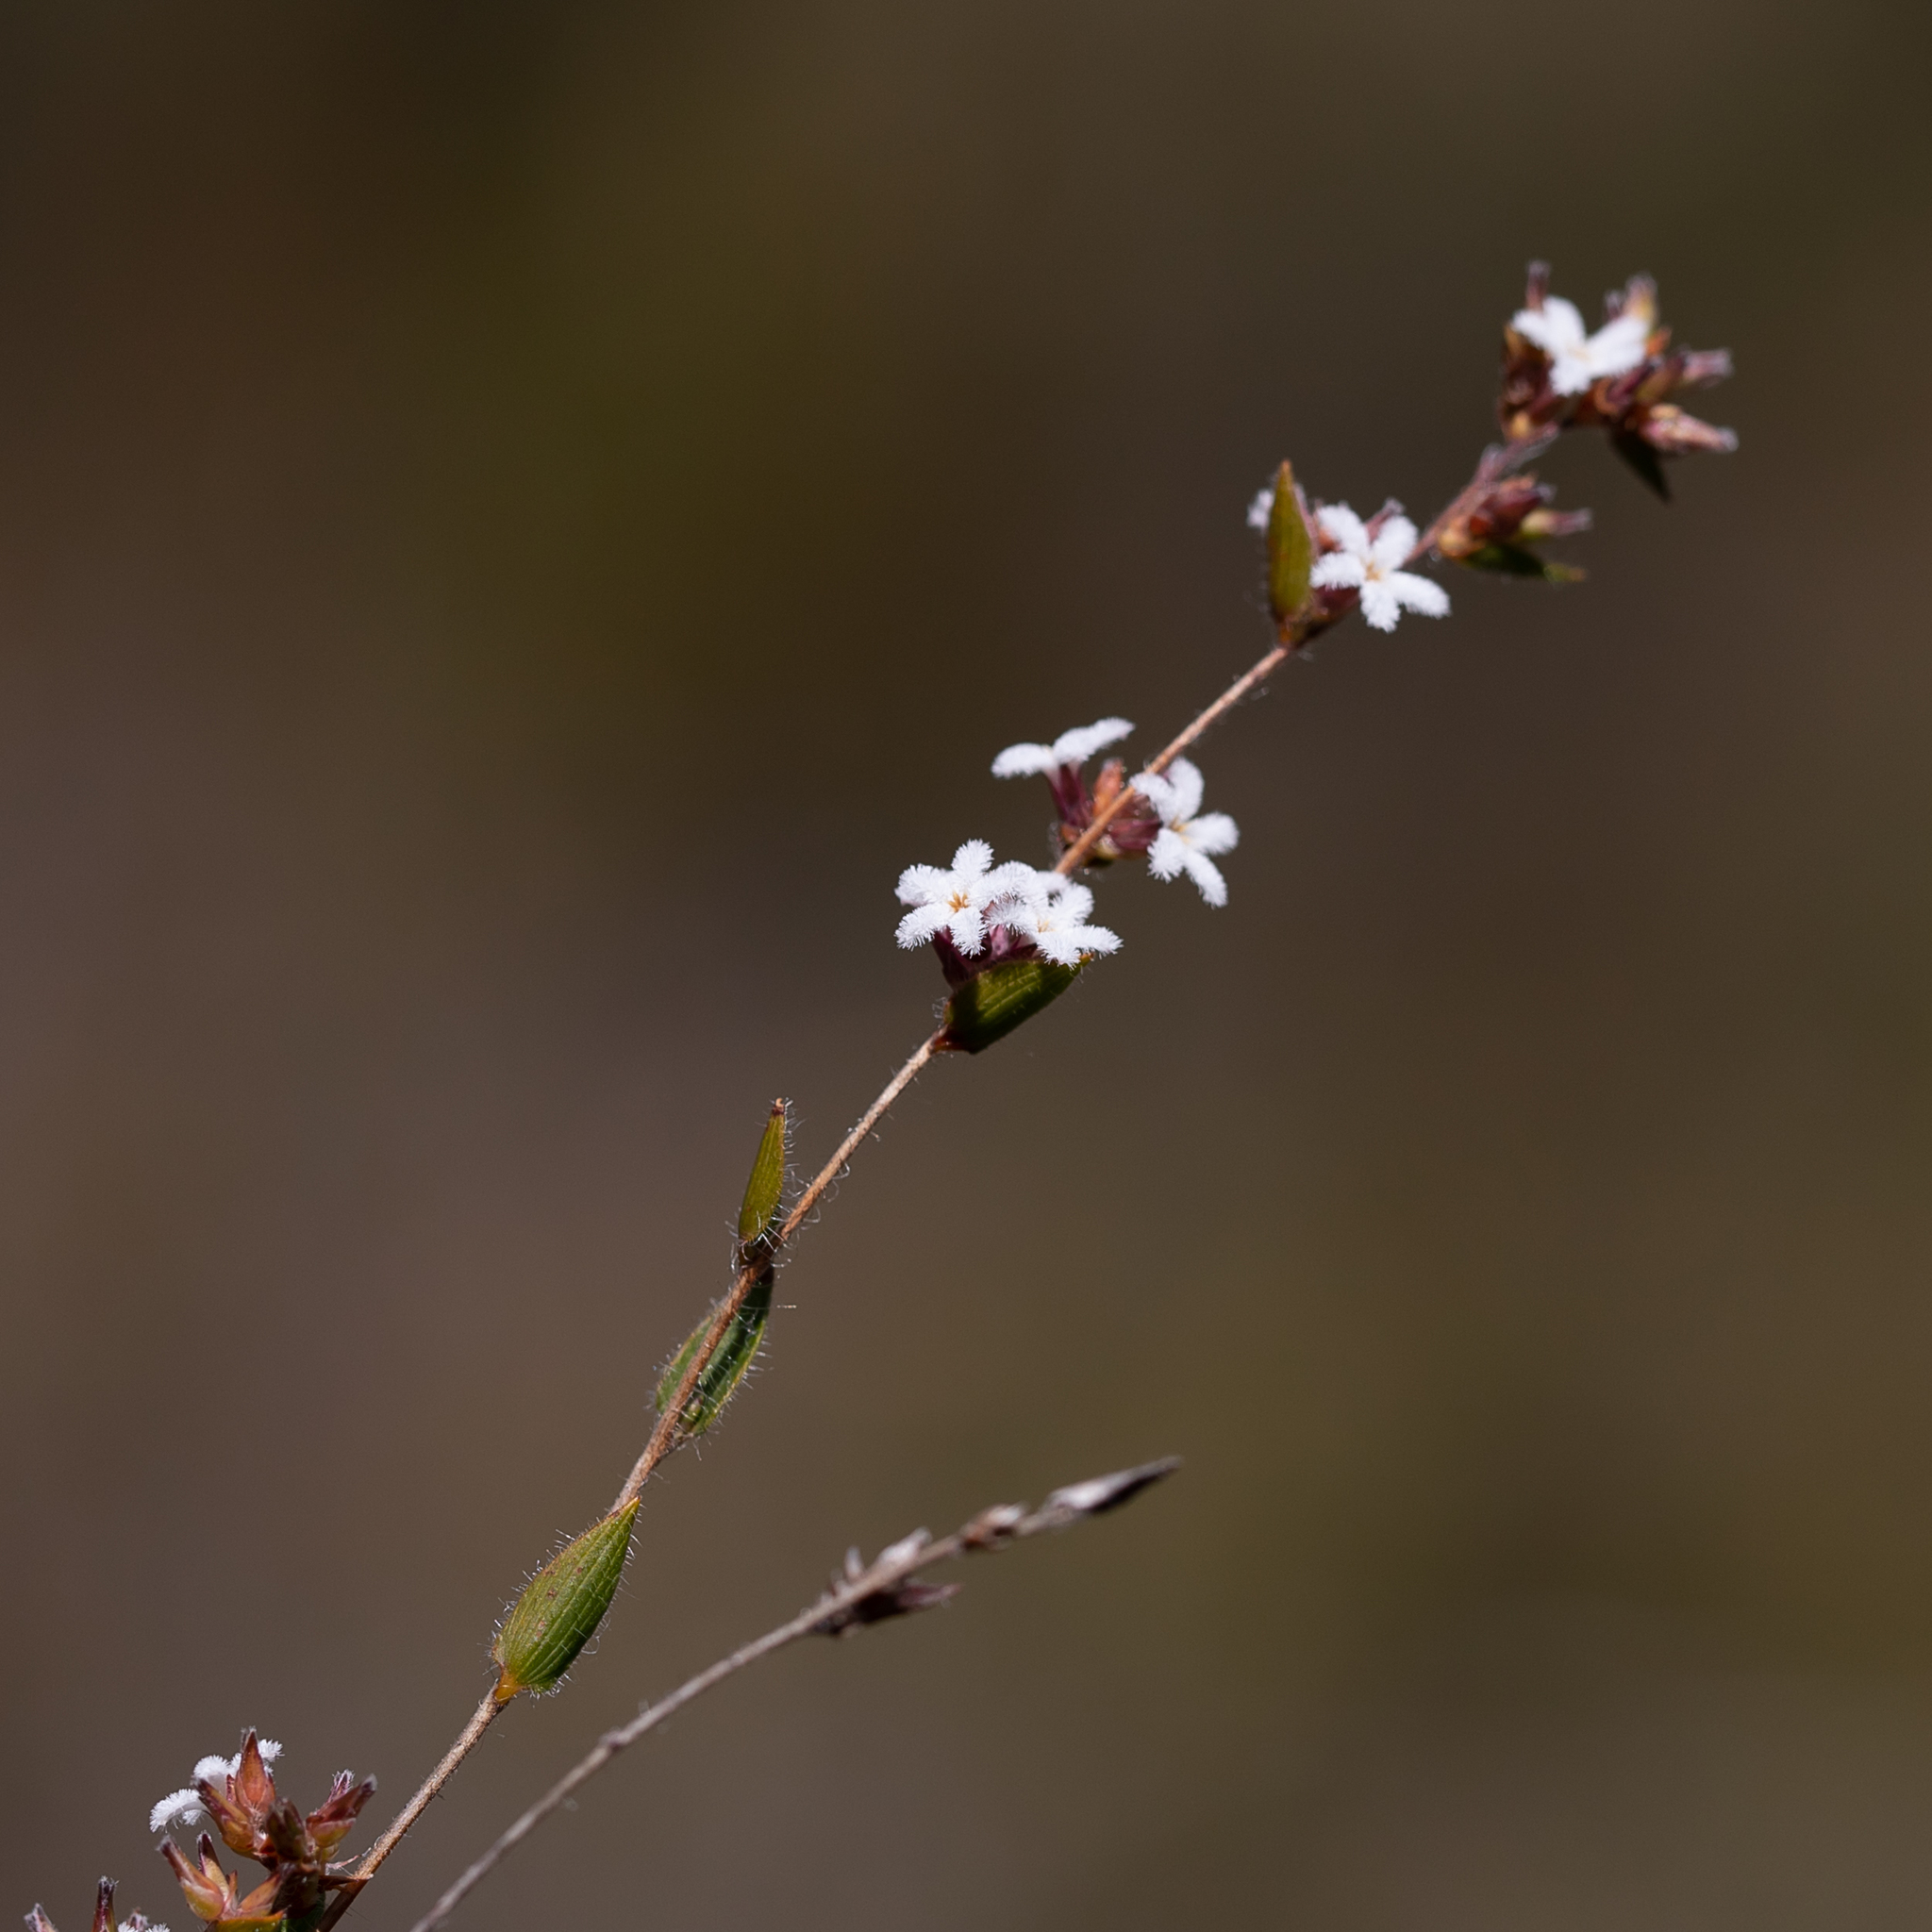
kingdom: Plantae
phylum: Tracheophyta
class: Magnoliopsida
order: Ericales
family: Ericaceae
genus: Leucopogon
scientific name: Leucopogon concurvus
